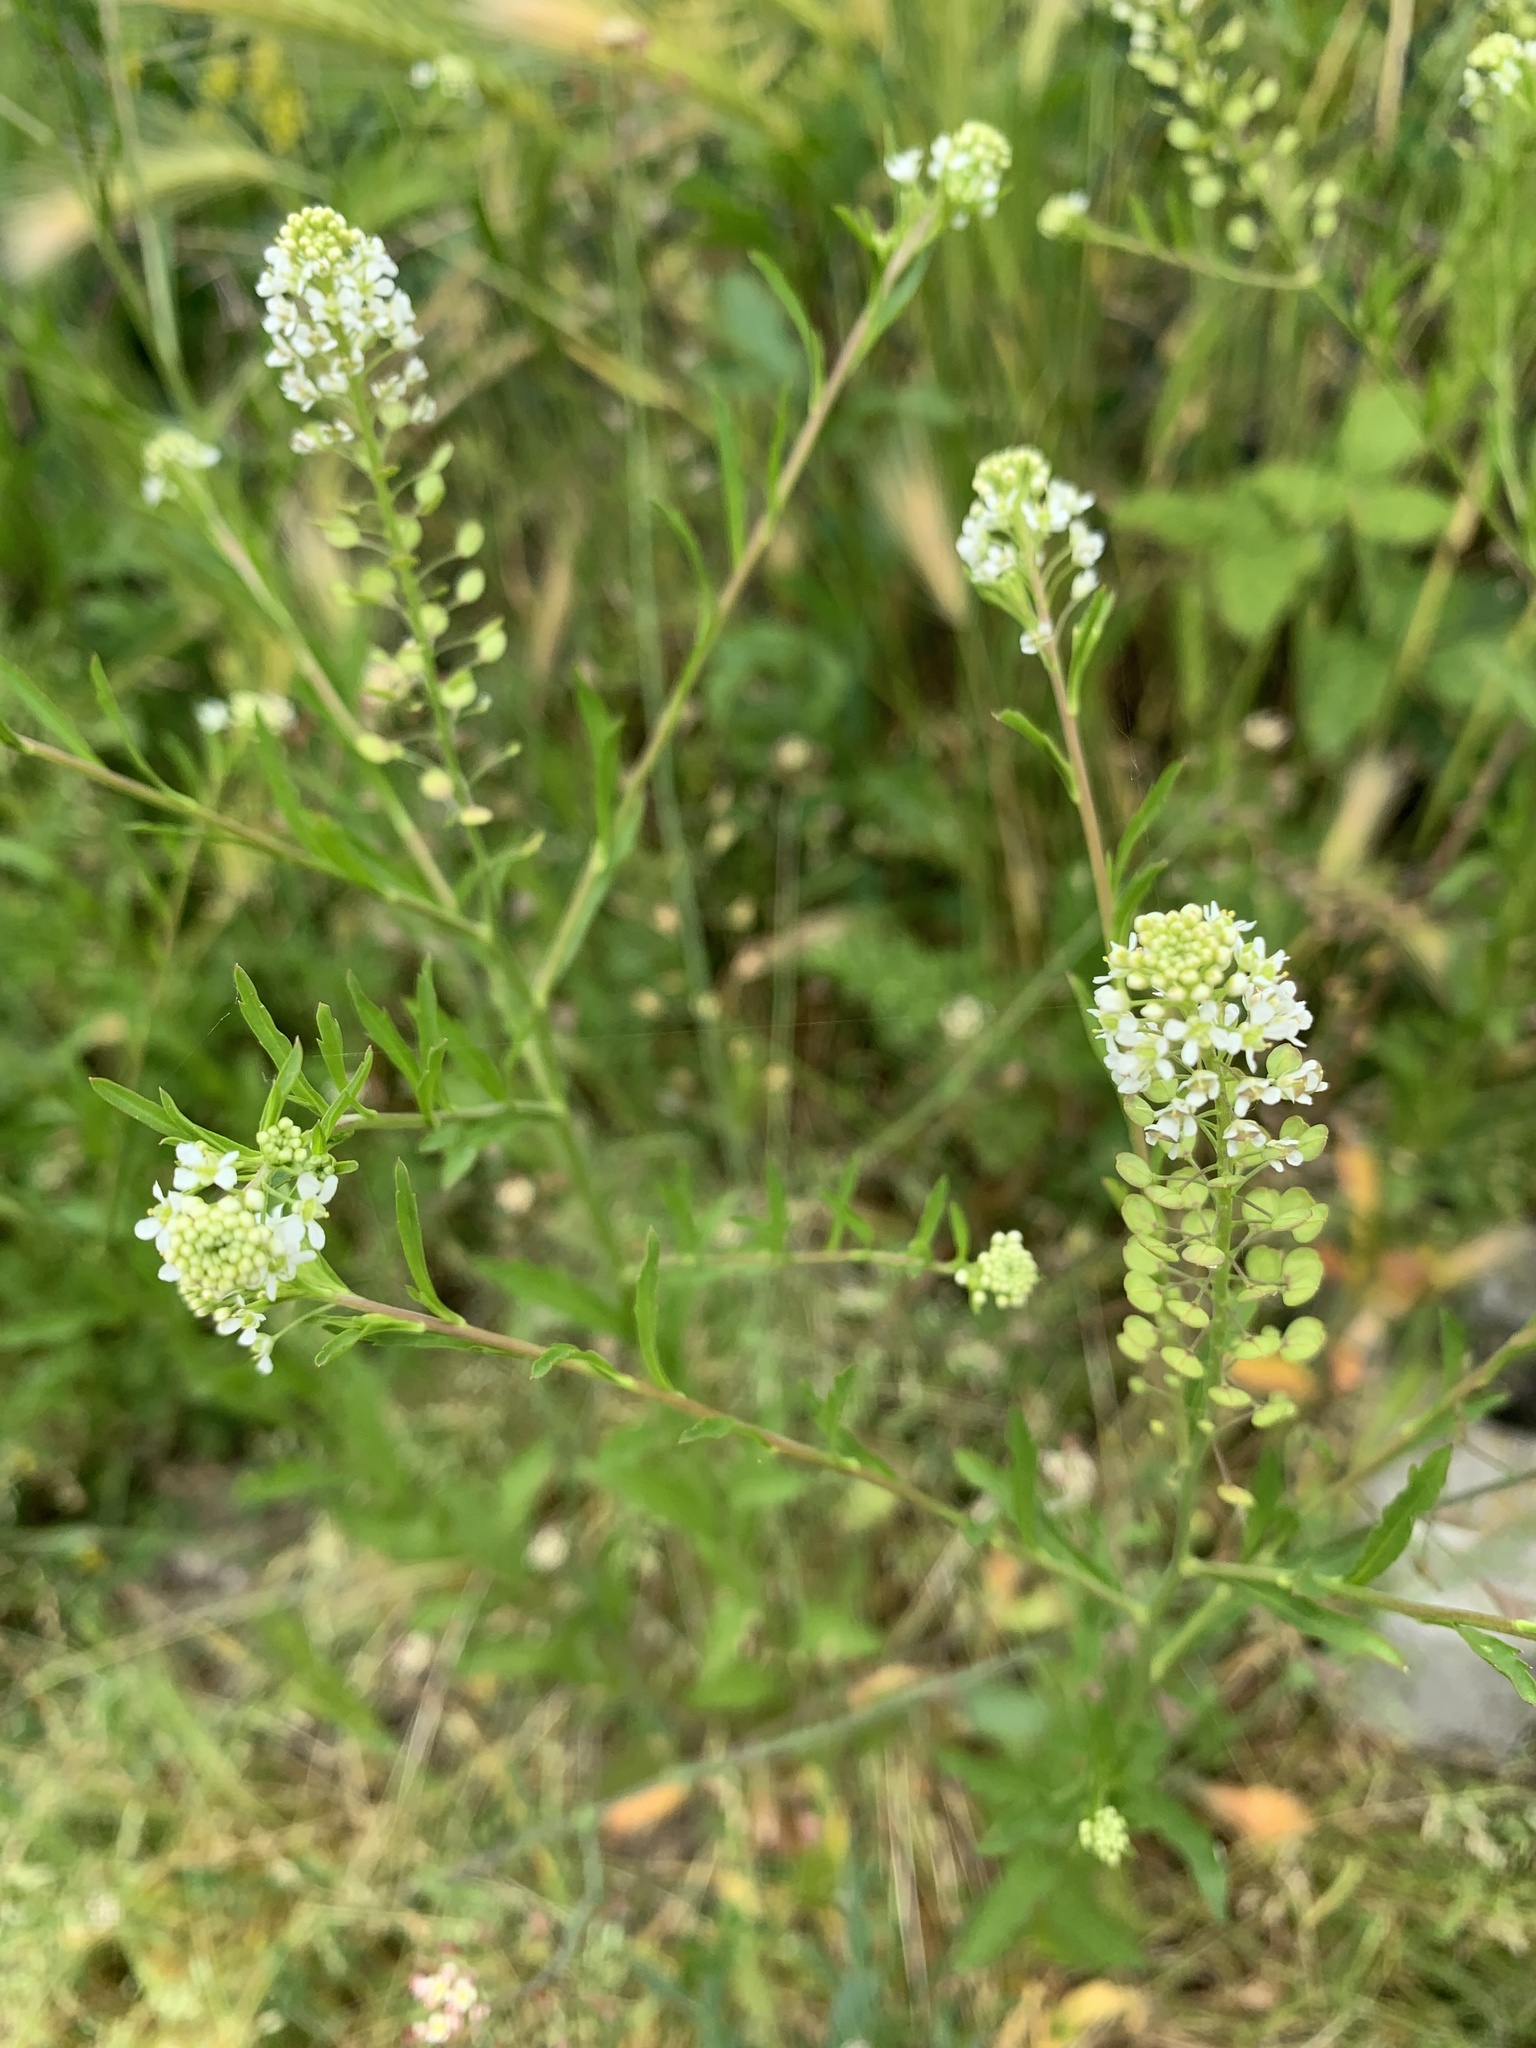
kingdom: Plantae
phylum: Tracheophyta
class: Magnoliopsida
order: Brassicales
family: Brassicaceae
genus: Lepidium
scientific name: Lepidium virginicum
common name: Least pepperwort
